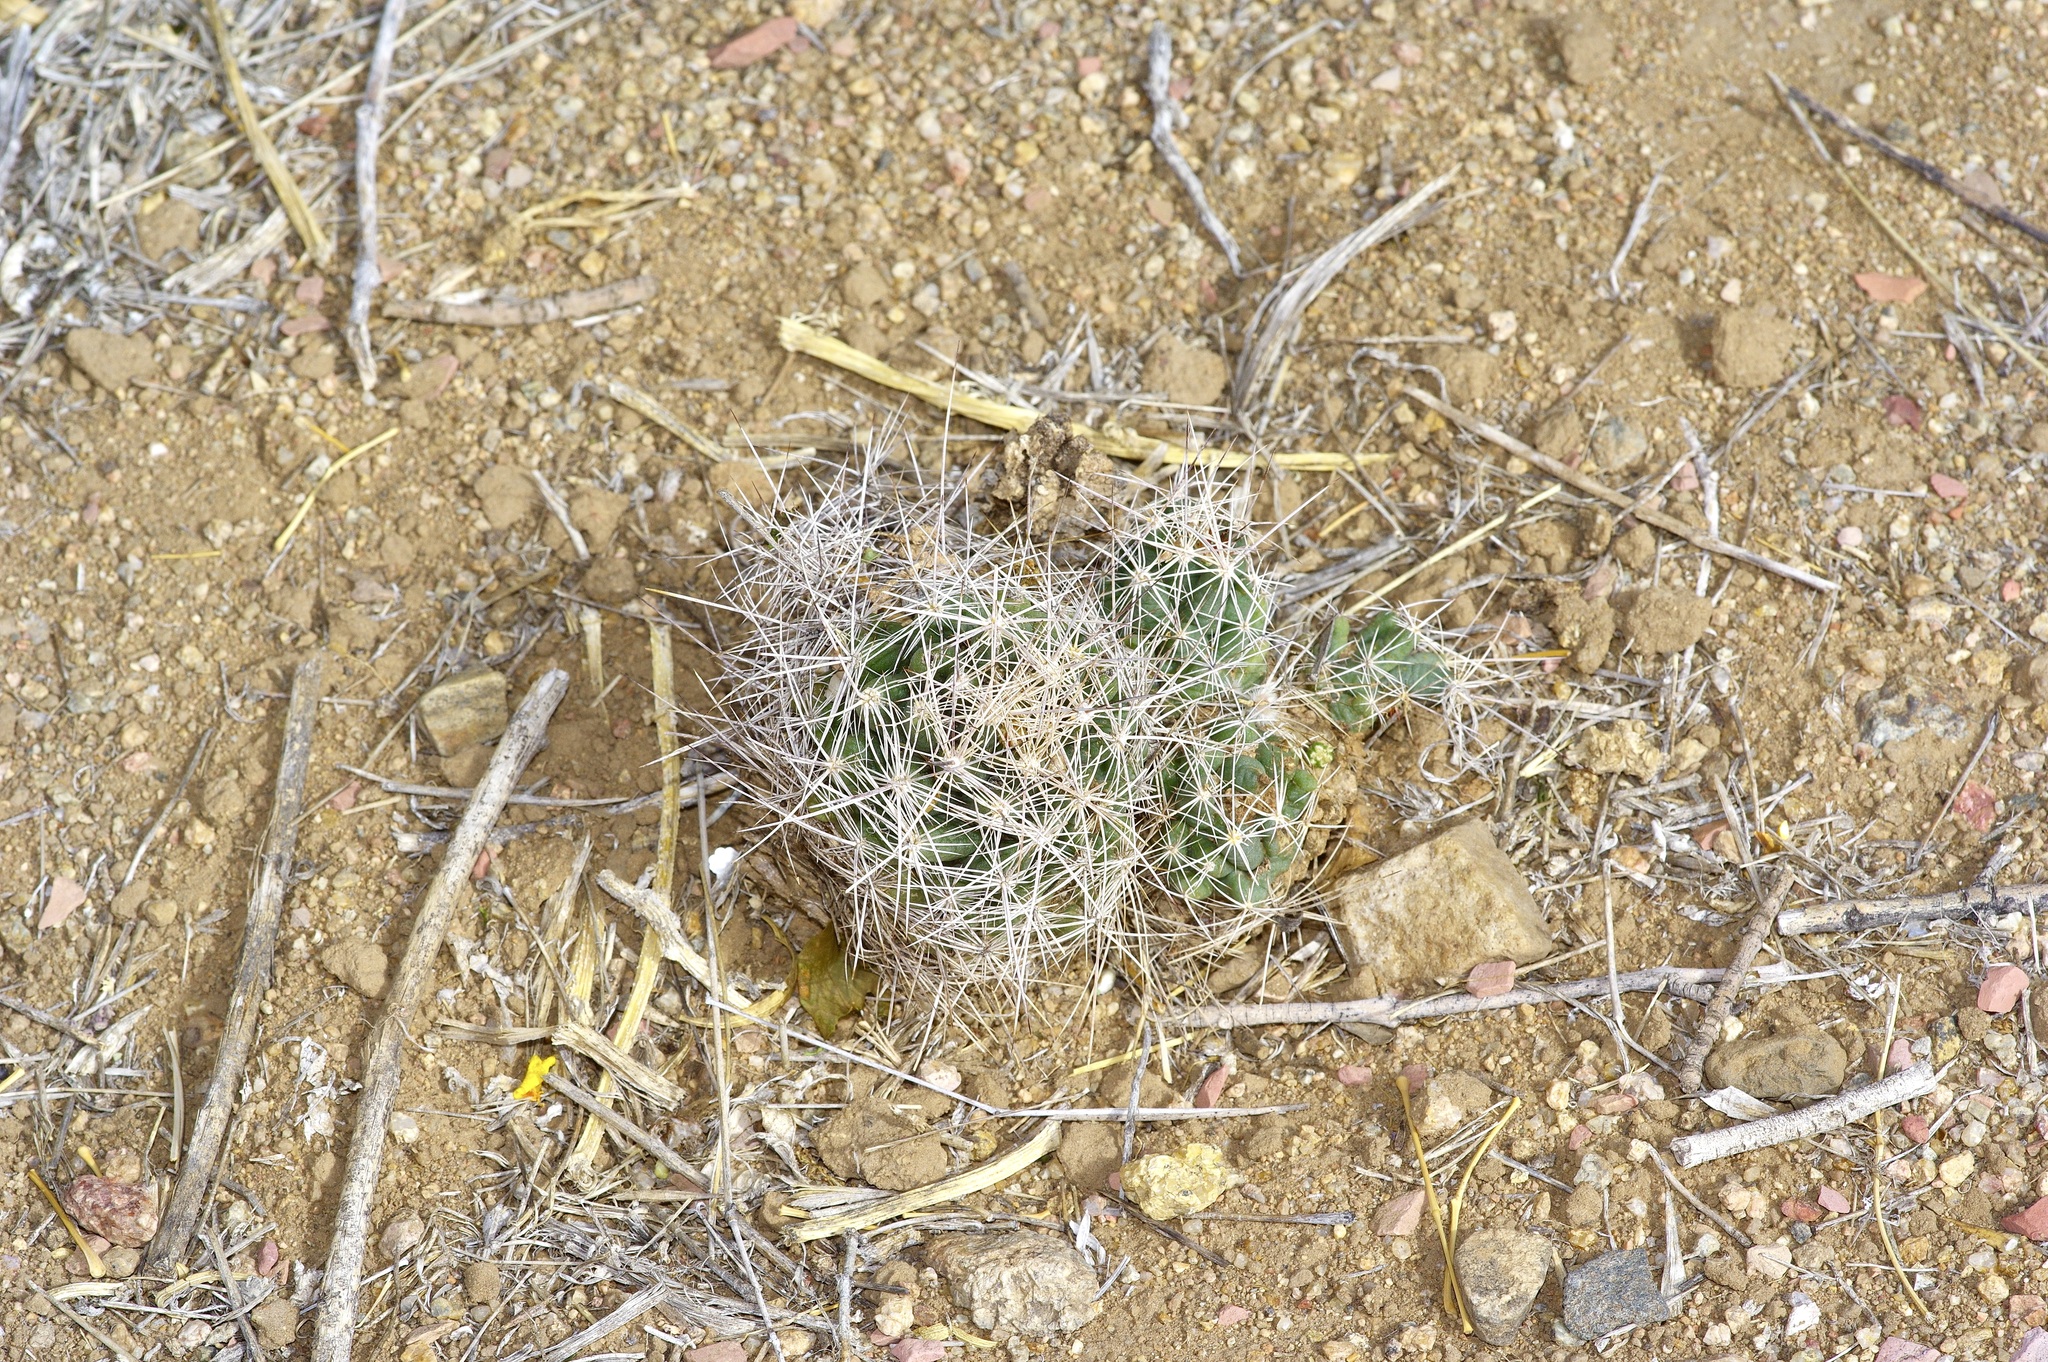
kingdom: Plantae
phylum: Tracheophyta
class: Magnoliopsida
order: Caryophyllales
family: Cactaceae
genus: Coryphantha
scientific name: Coryphantha macromeris
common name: Nipple beehive cactus
